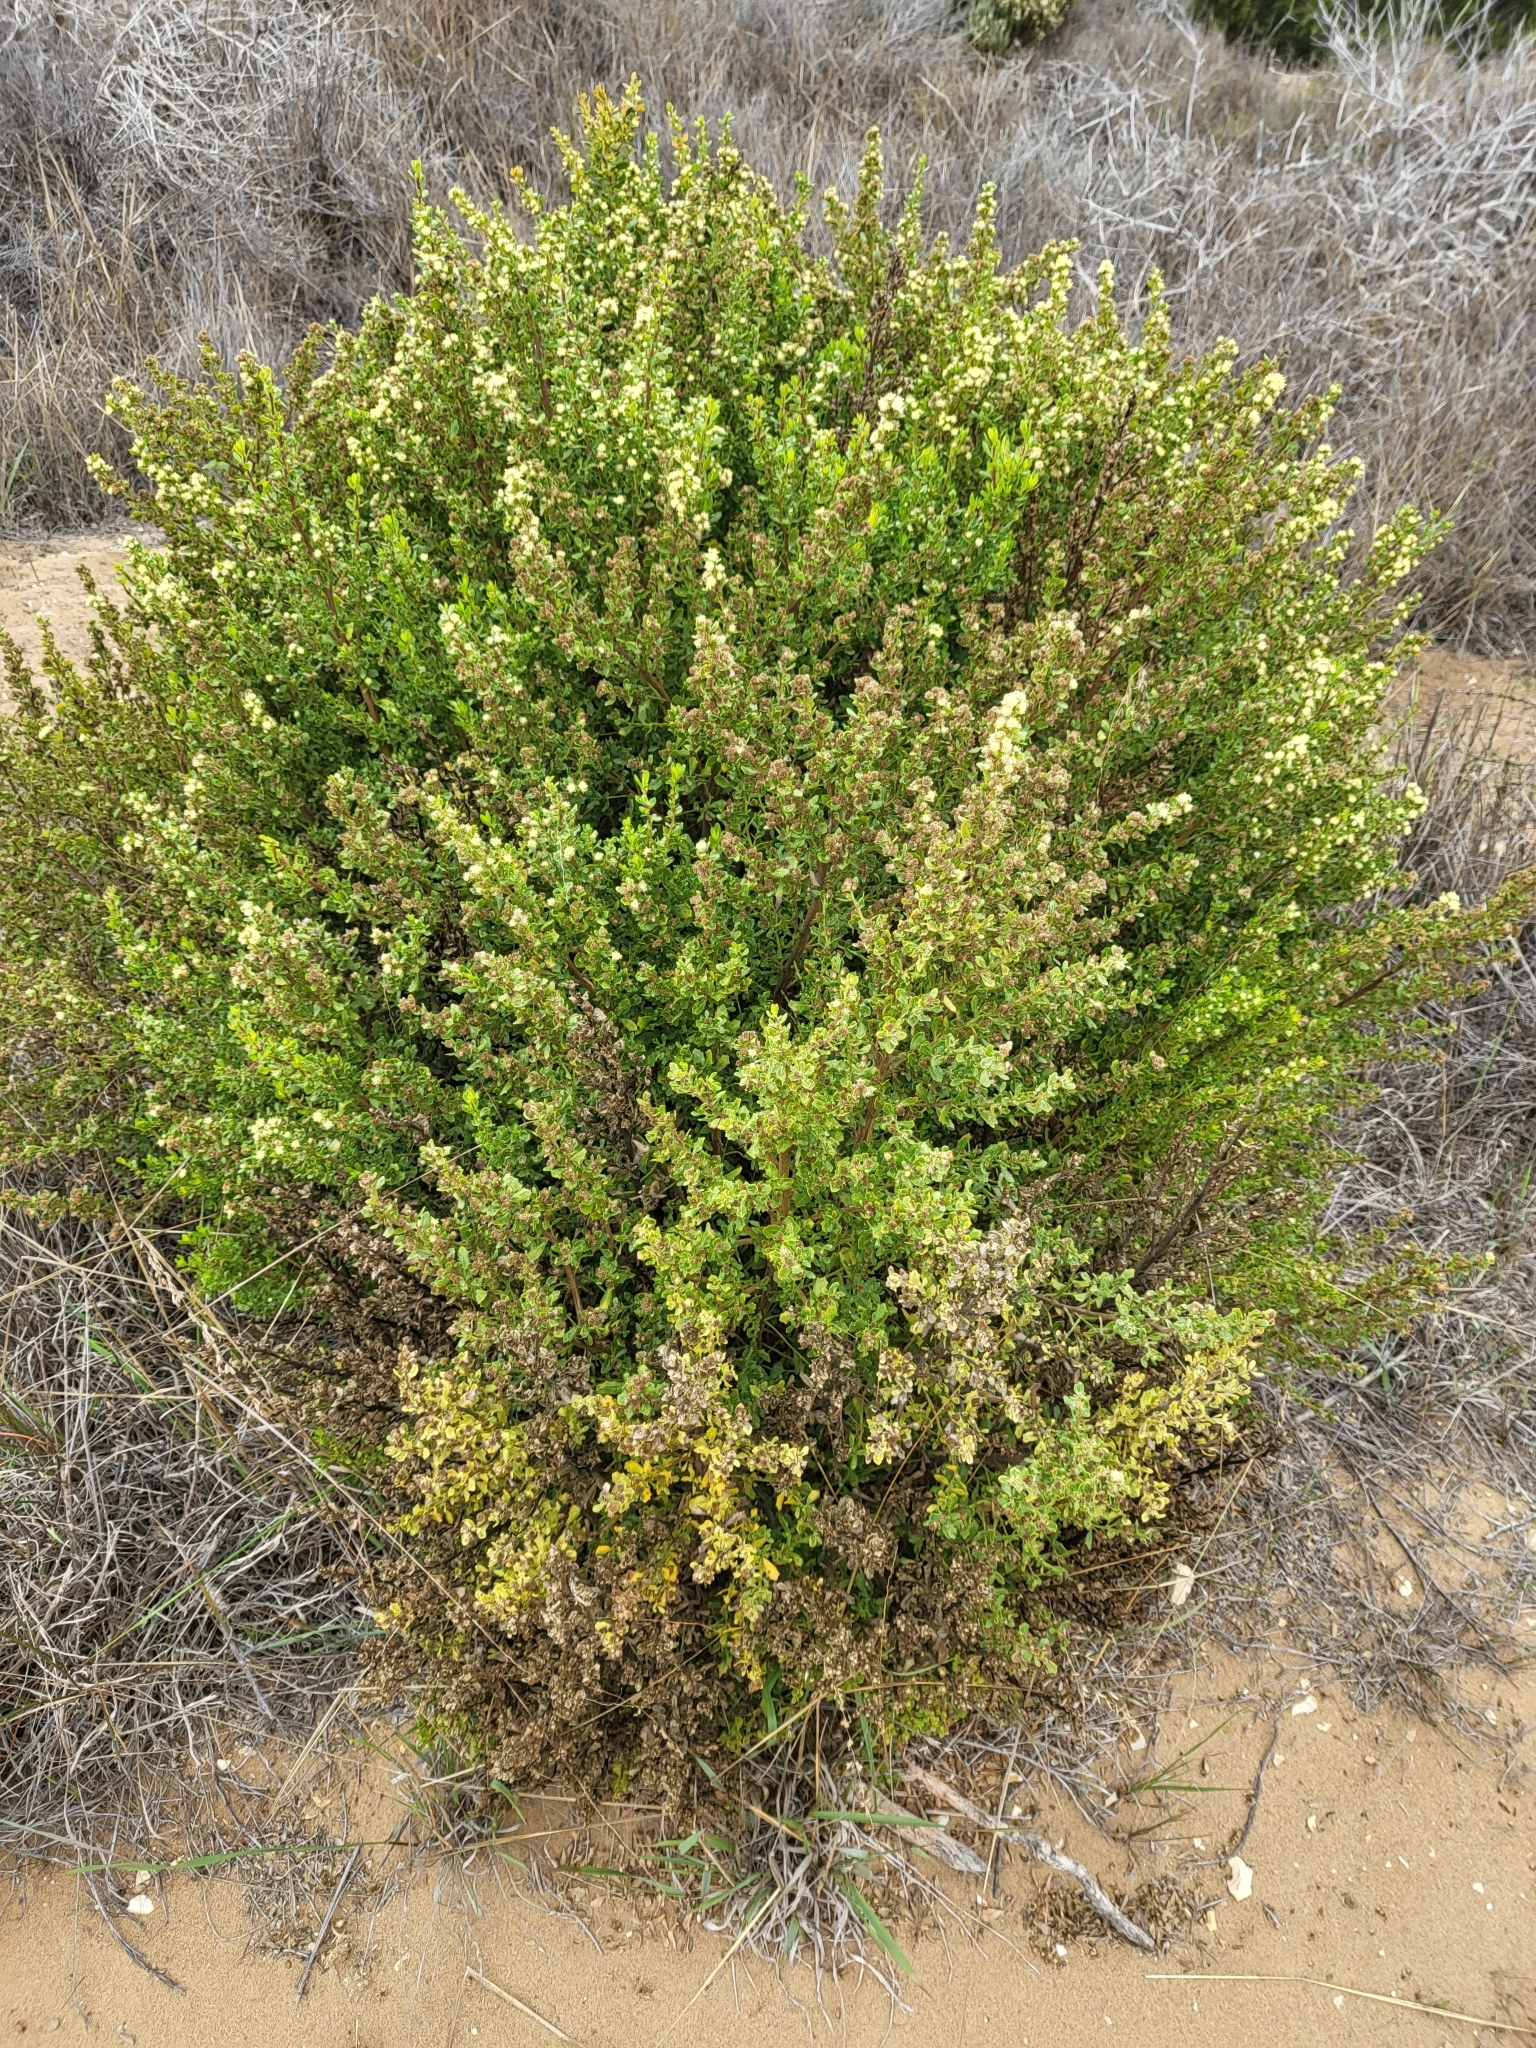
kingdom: Plantae
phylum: Tracheophyta
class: Magnoliopsida
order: Asterales
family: Asteraceae
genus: Baccharis
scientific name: Baccharis pilularis
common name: Coyotebrush
